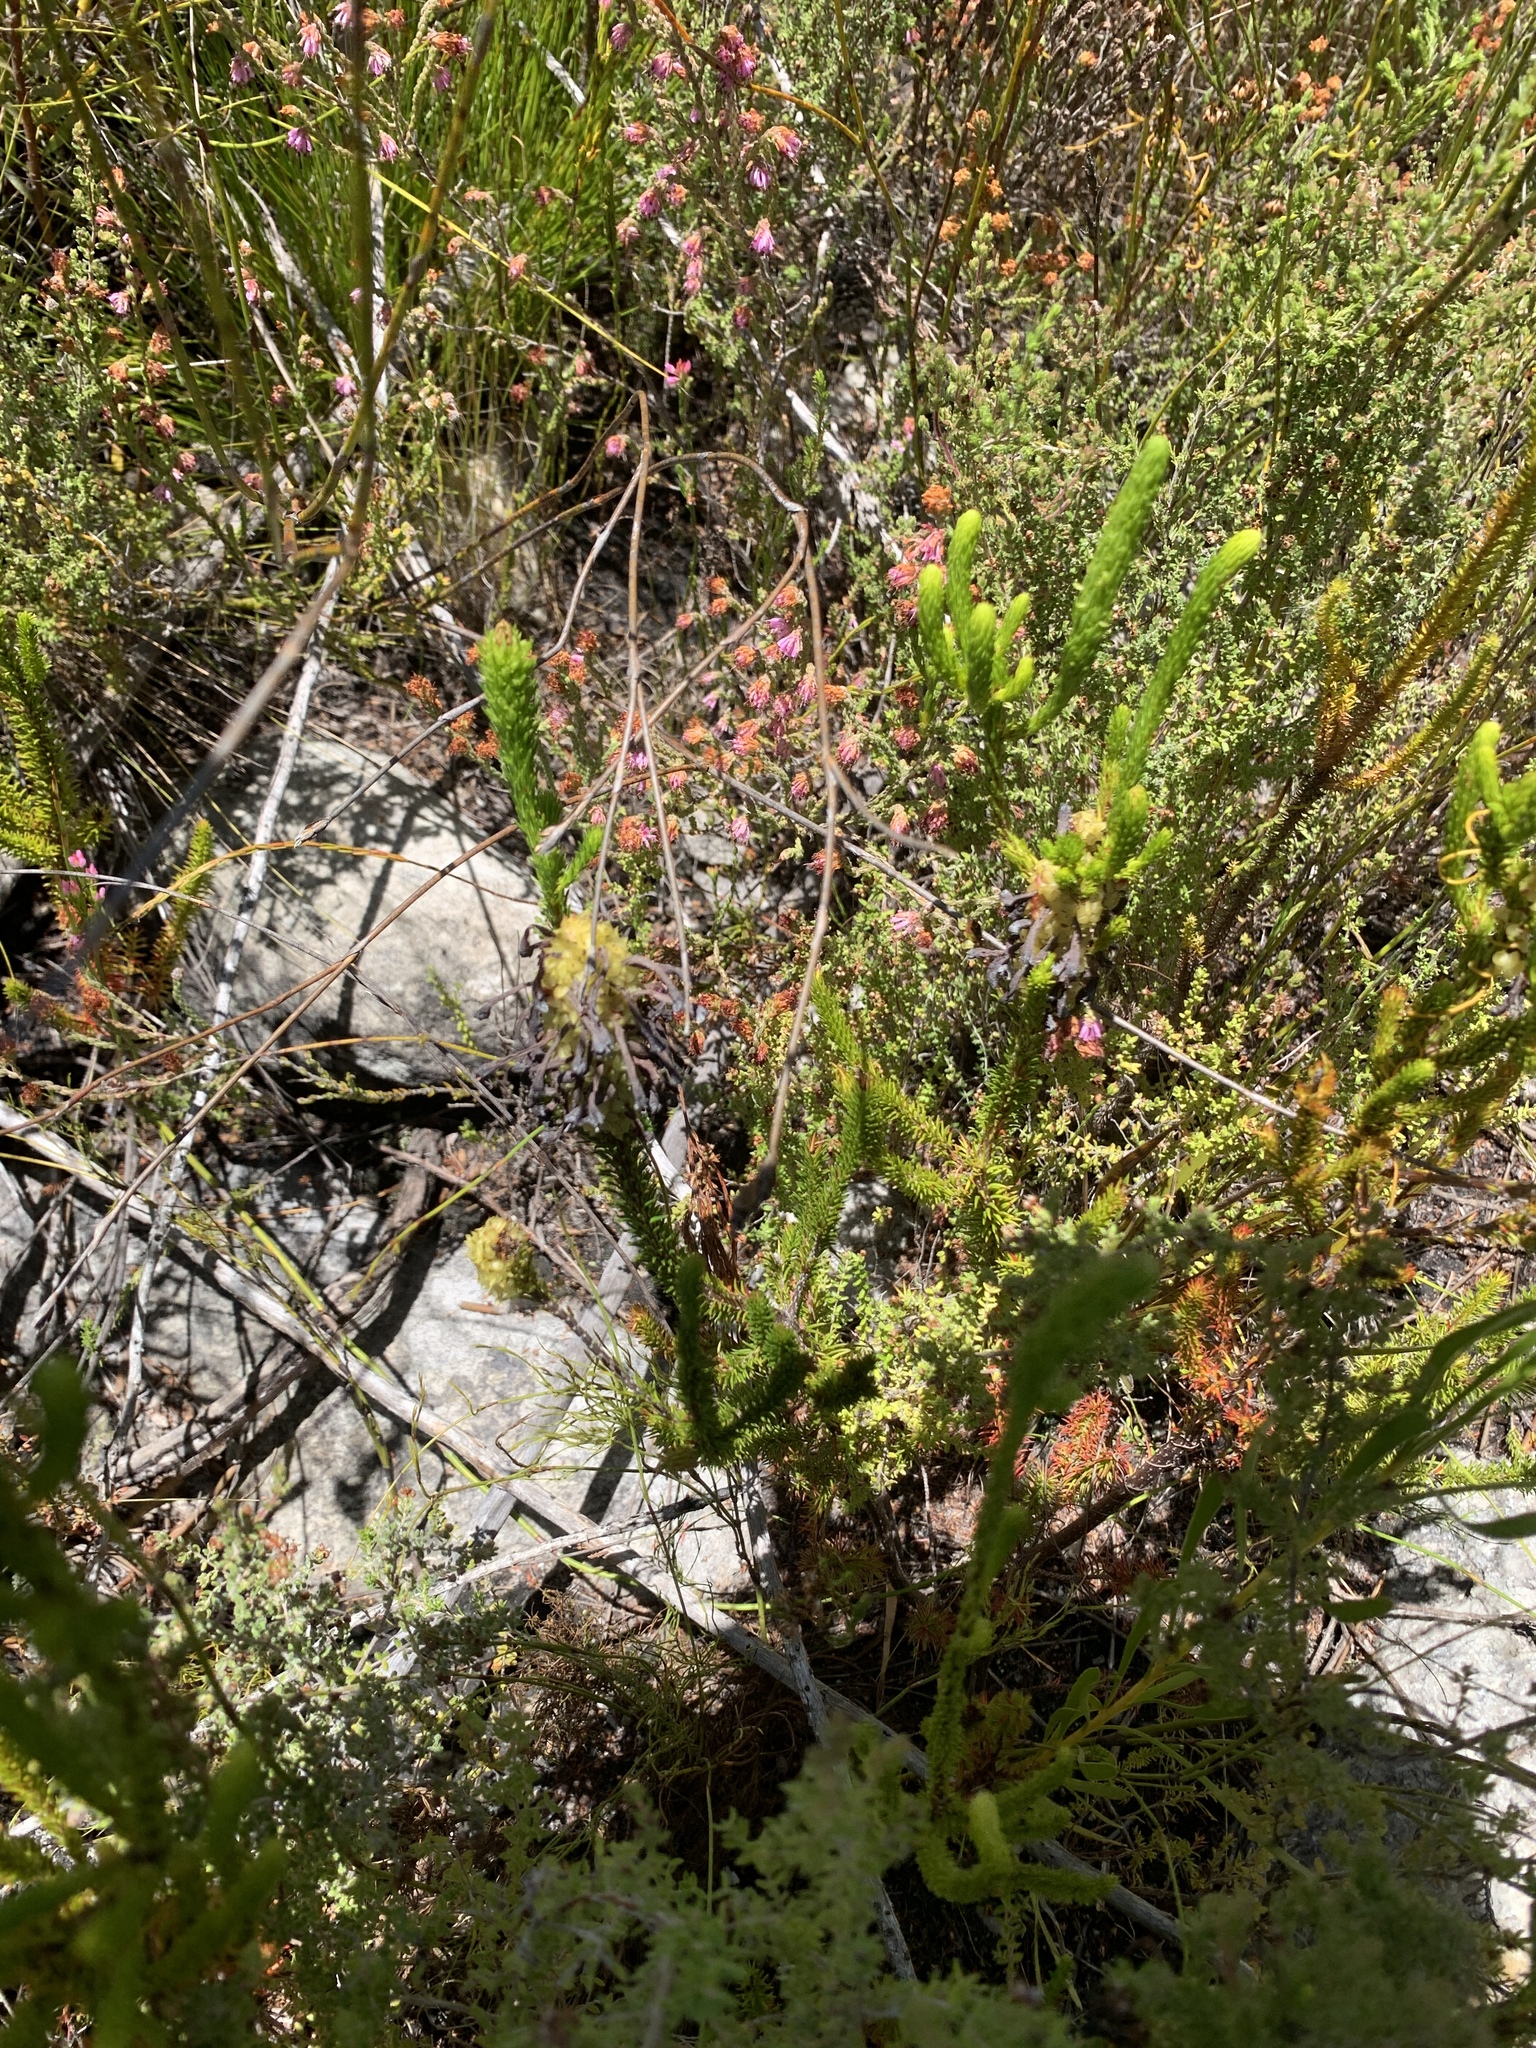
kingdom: Plantae
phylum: Tracheophyta
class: Magnoliopsida
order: Ericales
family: Ericaceae
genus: Erica
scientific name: Erica sessiliflora
